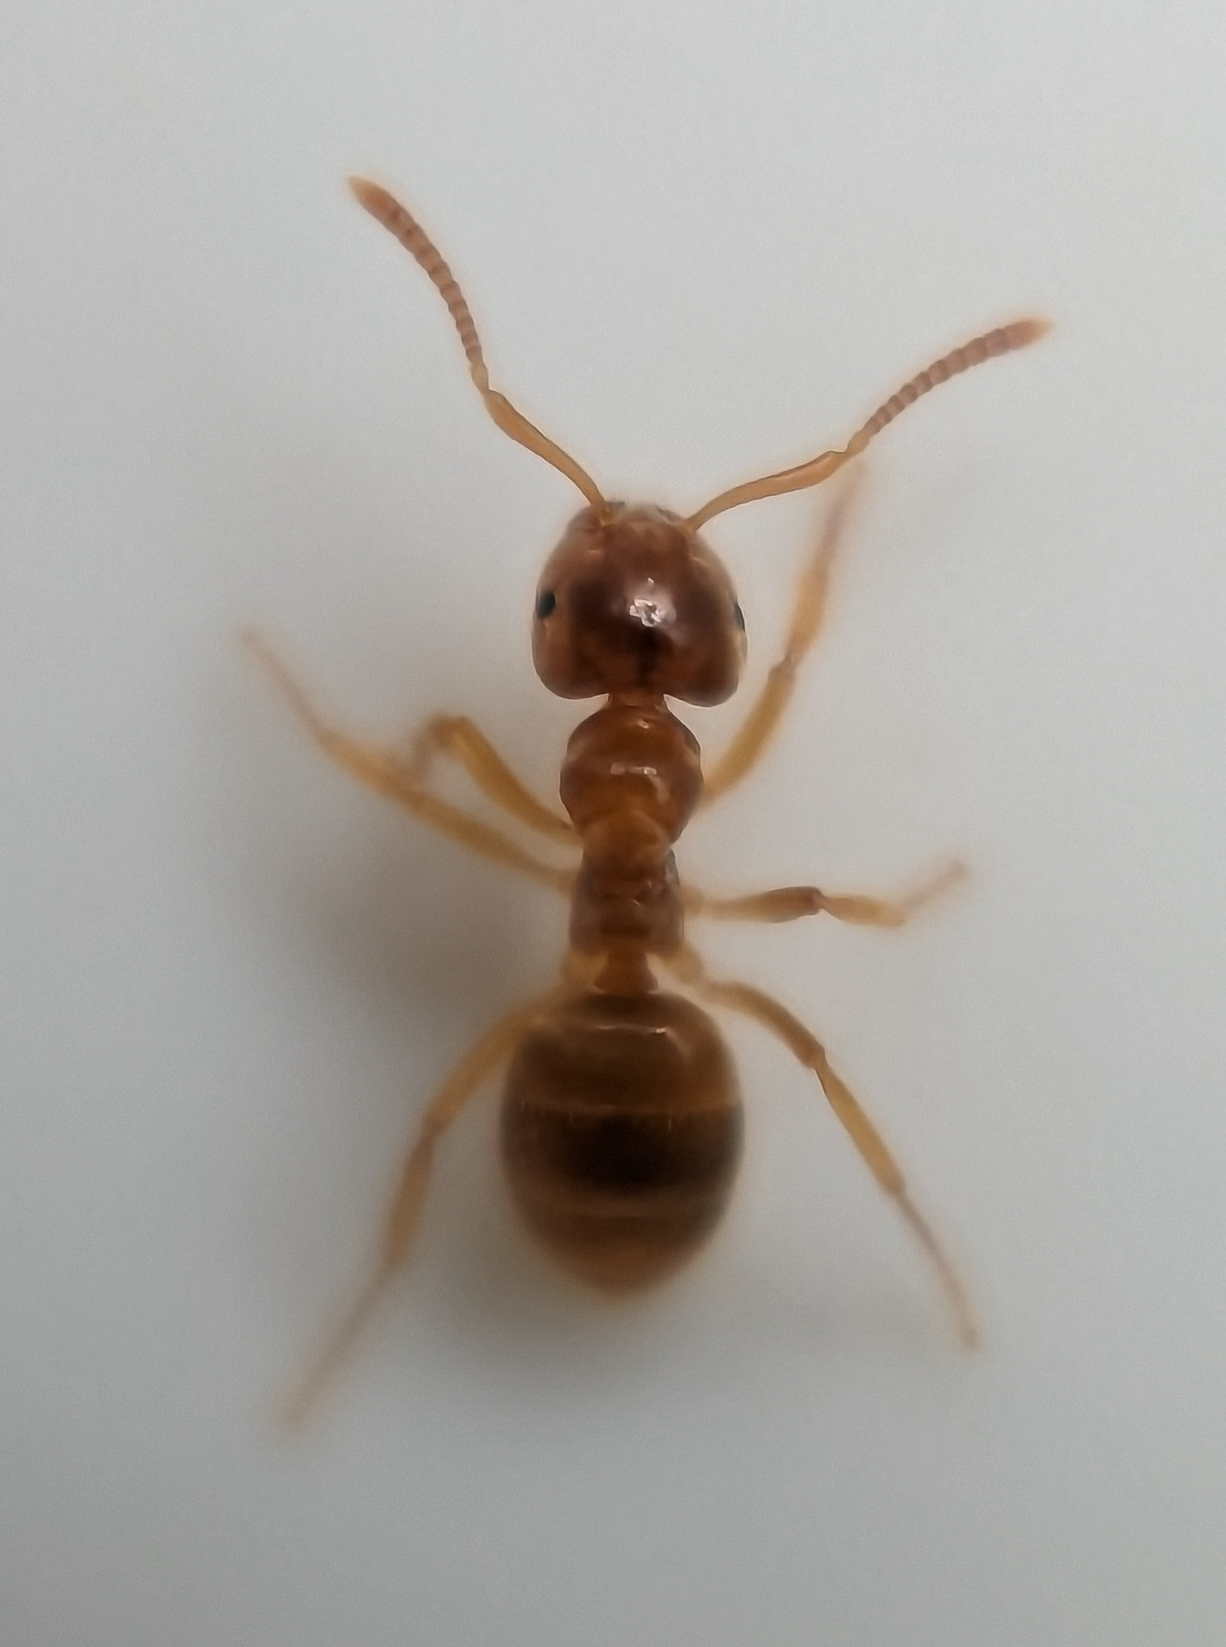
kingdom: Animalia
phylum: Arthropoda
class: Insecta
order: Hymenoptera
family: Formicidae
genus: Lasius
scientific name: Lasius flavus
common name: Blond field ant
